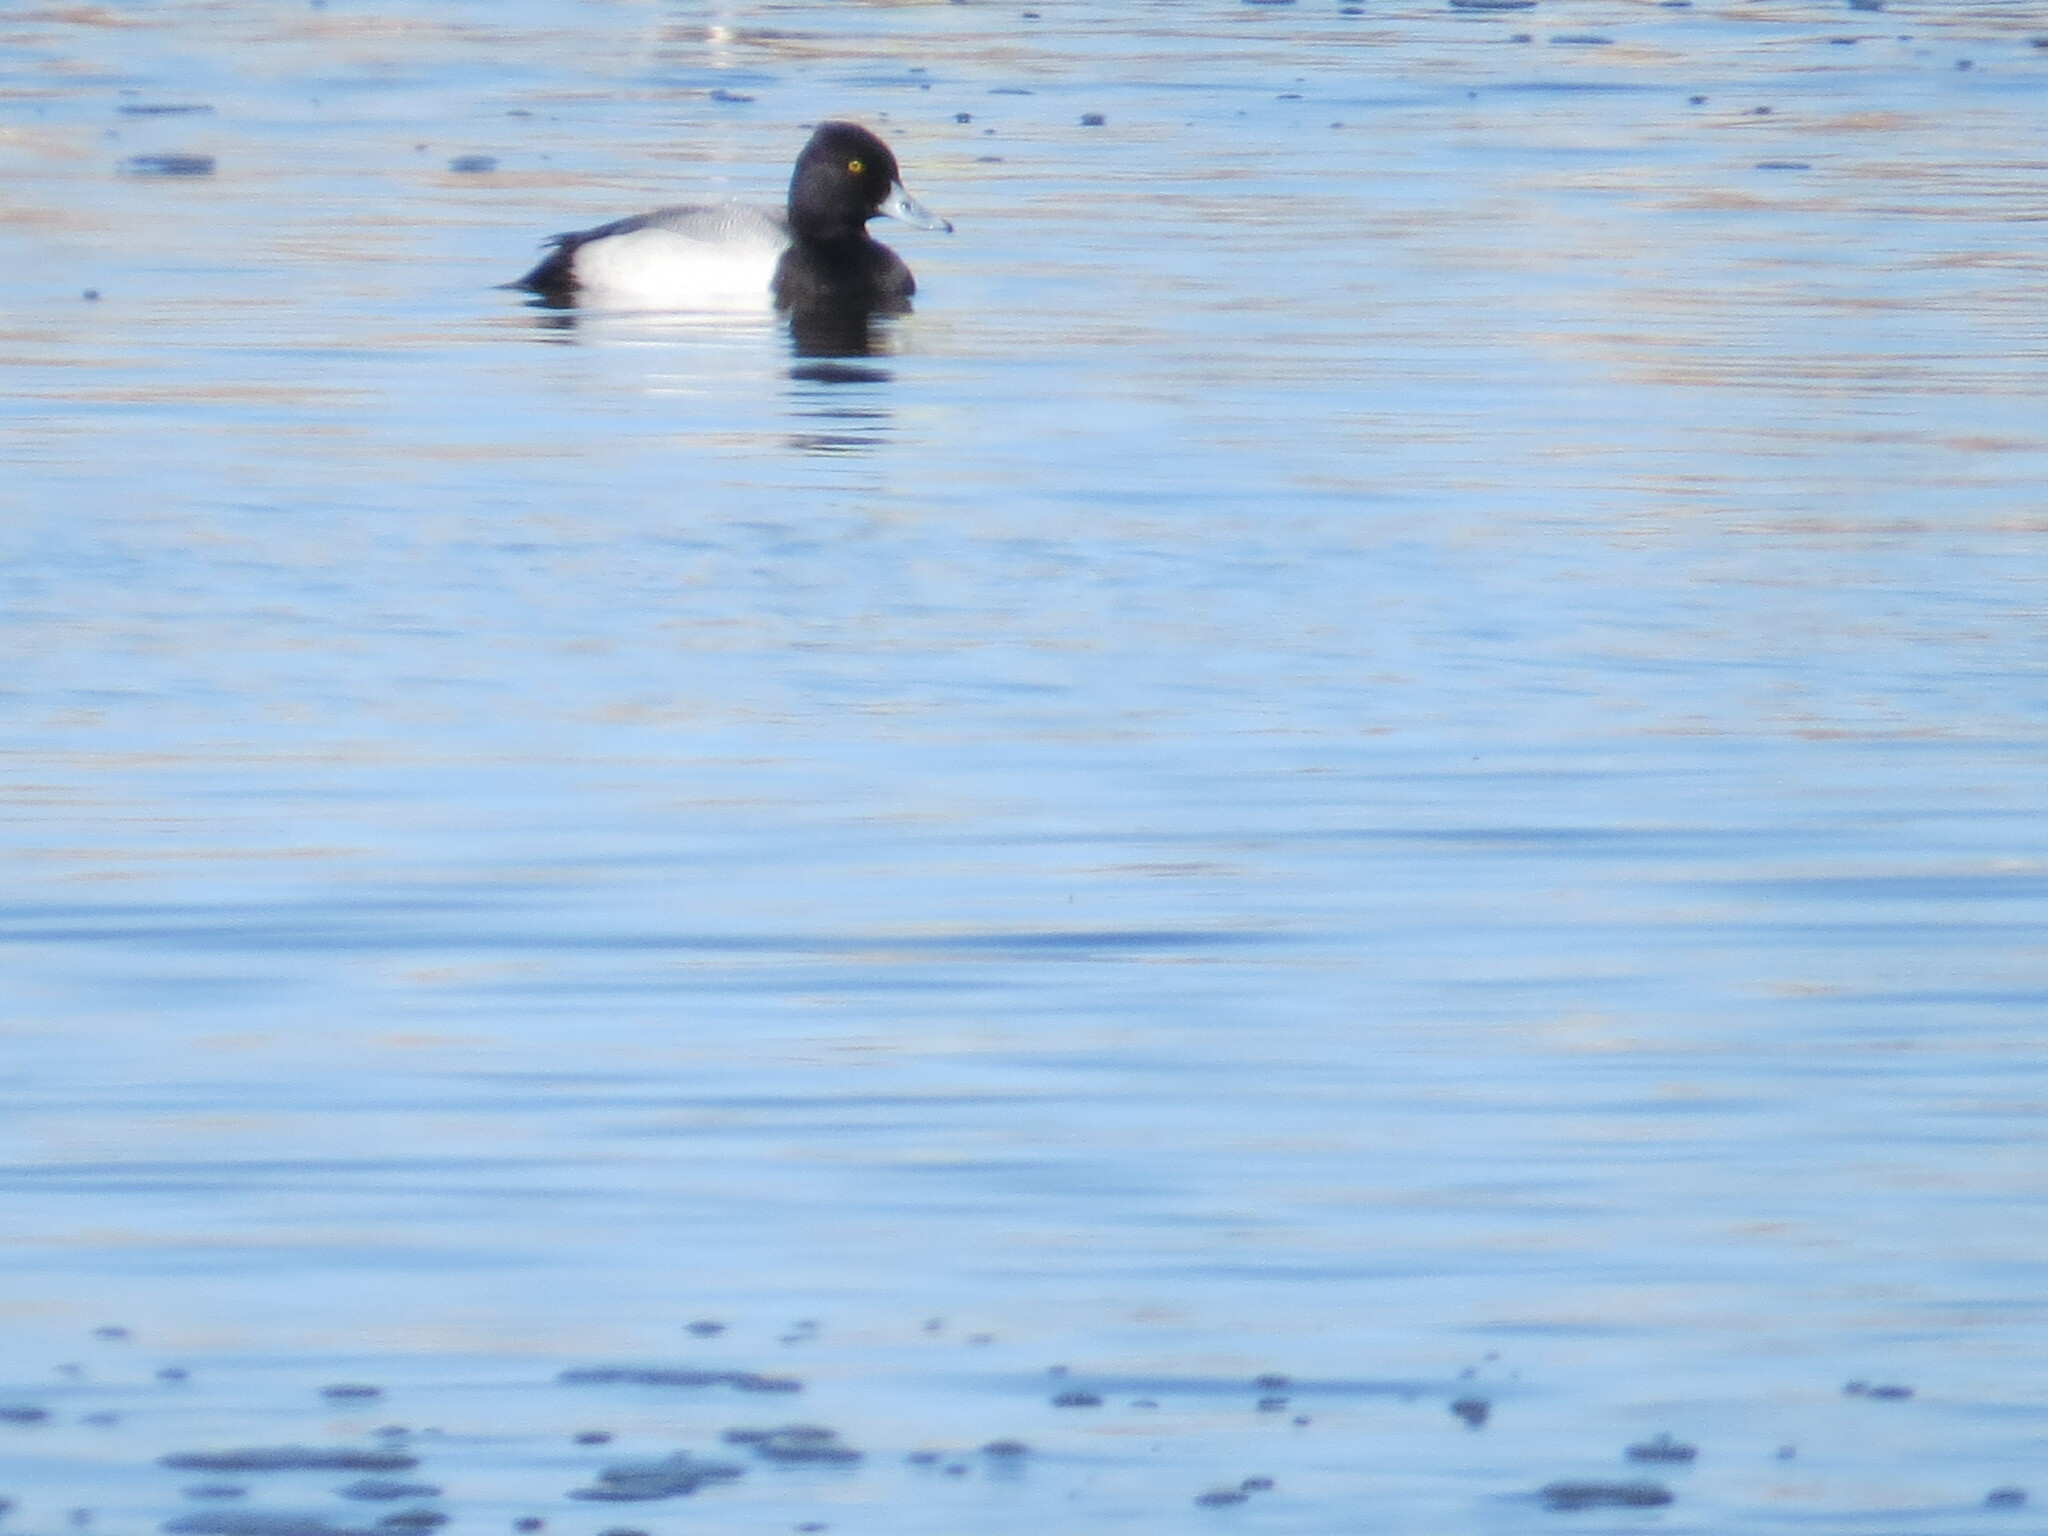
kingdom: Animalia
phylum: Chordata
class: Aves
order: Anseriformes
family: Anatidae
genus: Aythya
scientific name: Aythya affinis
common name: Lesser scaup
